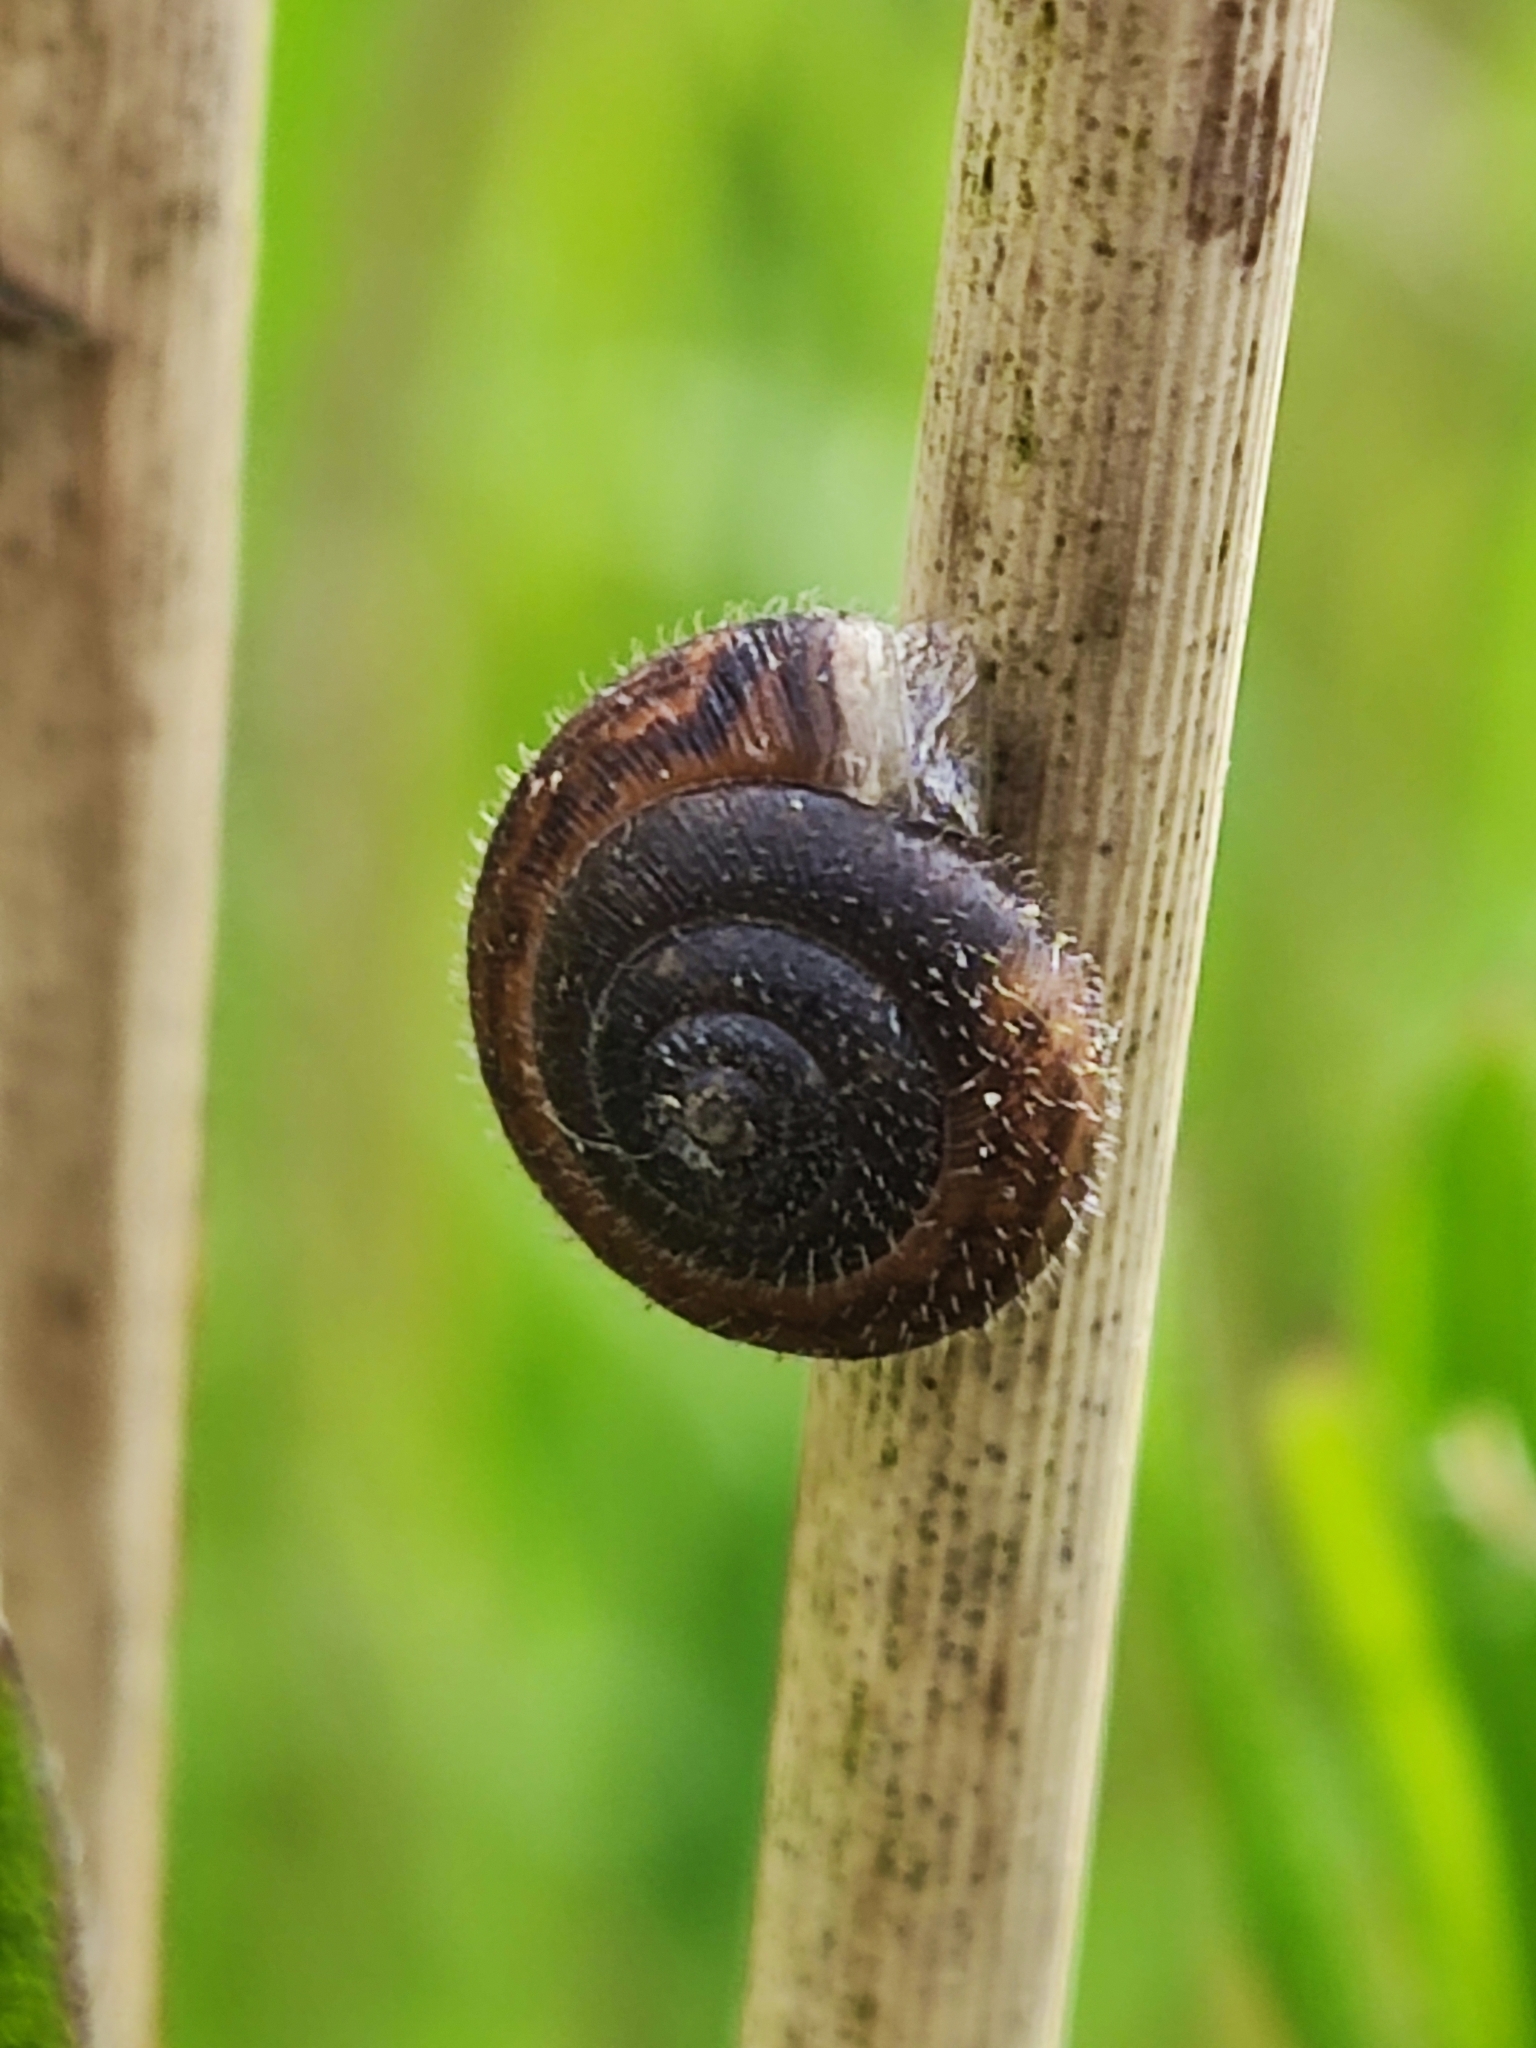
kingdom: Animalia
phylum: Mollusca
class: Gastropoda
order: Stylommatophora
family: Hygromiidae
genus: Trochulus
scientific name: Trochulus hispidus
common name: Hairy snail
